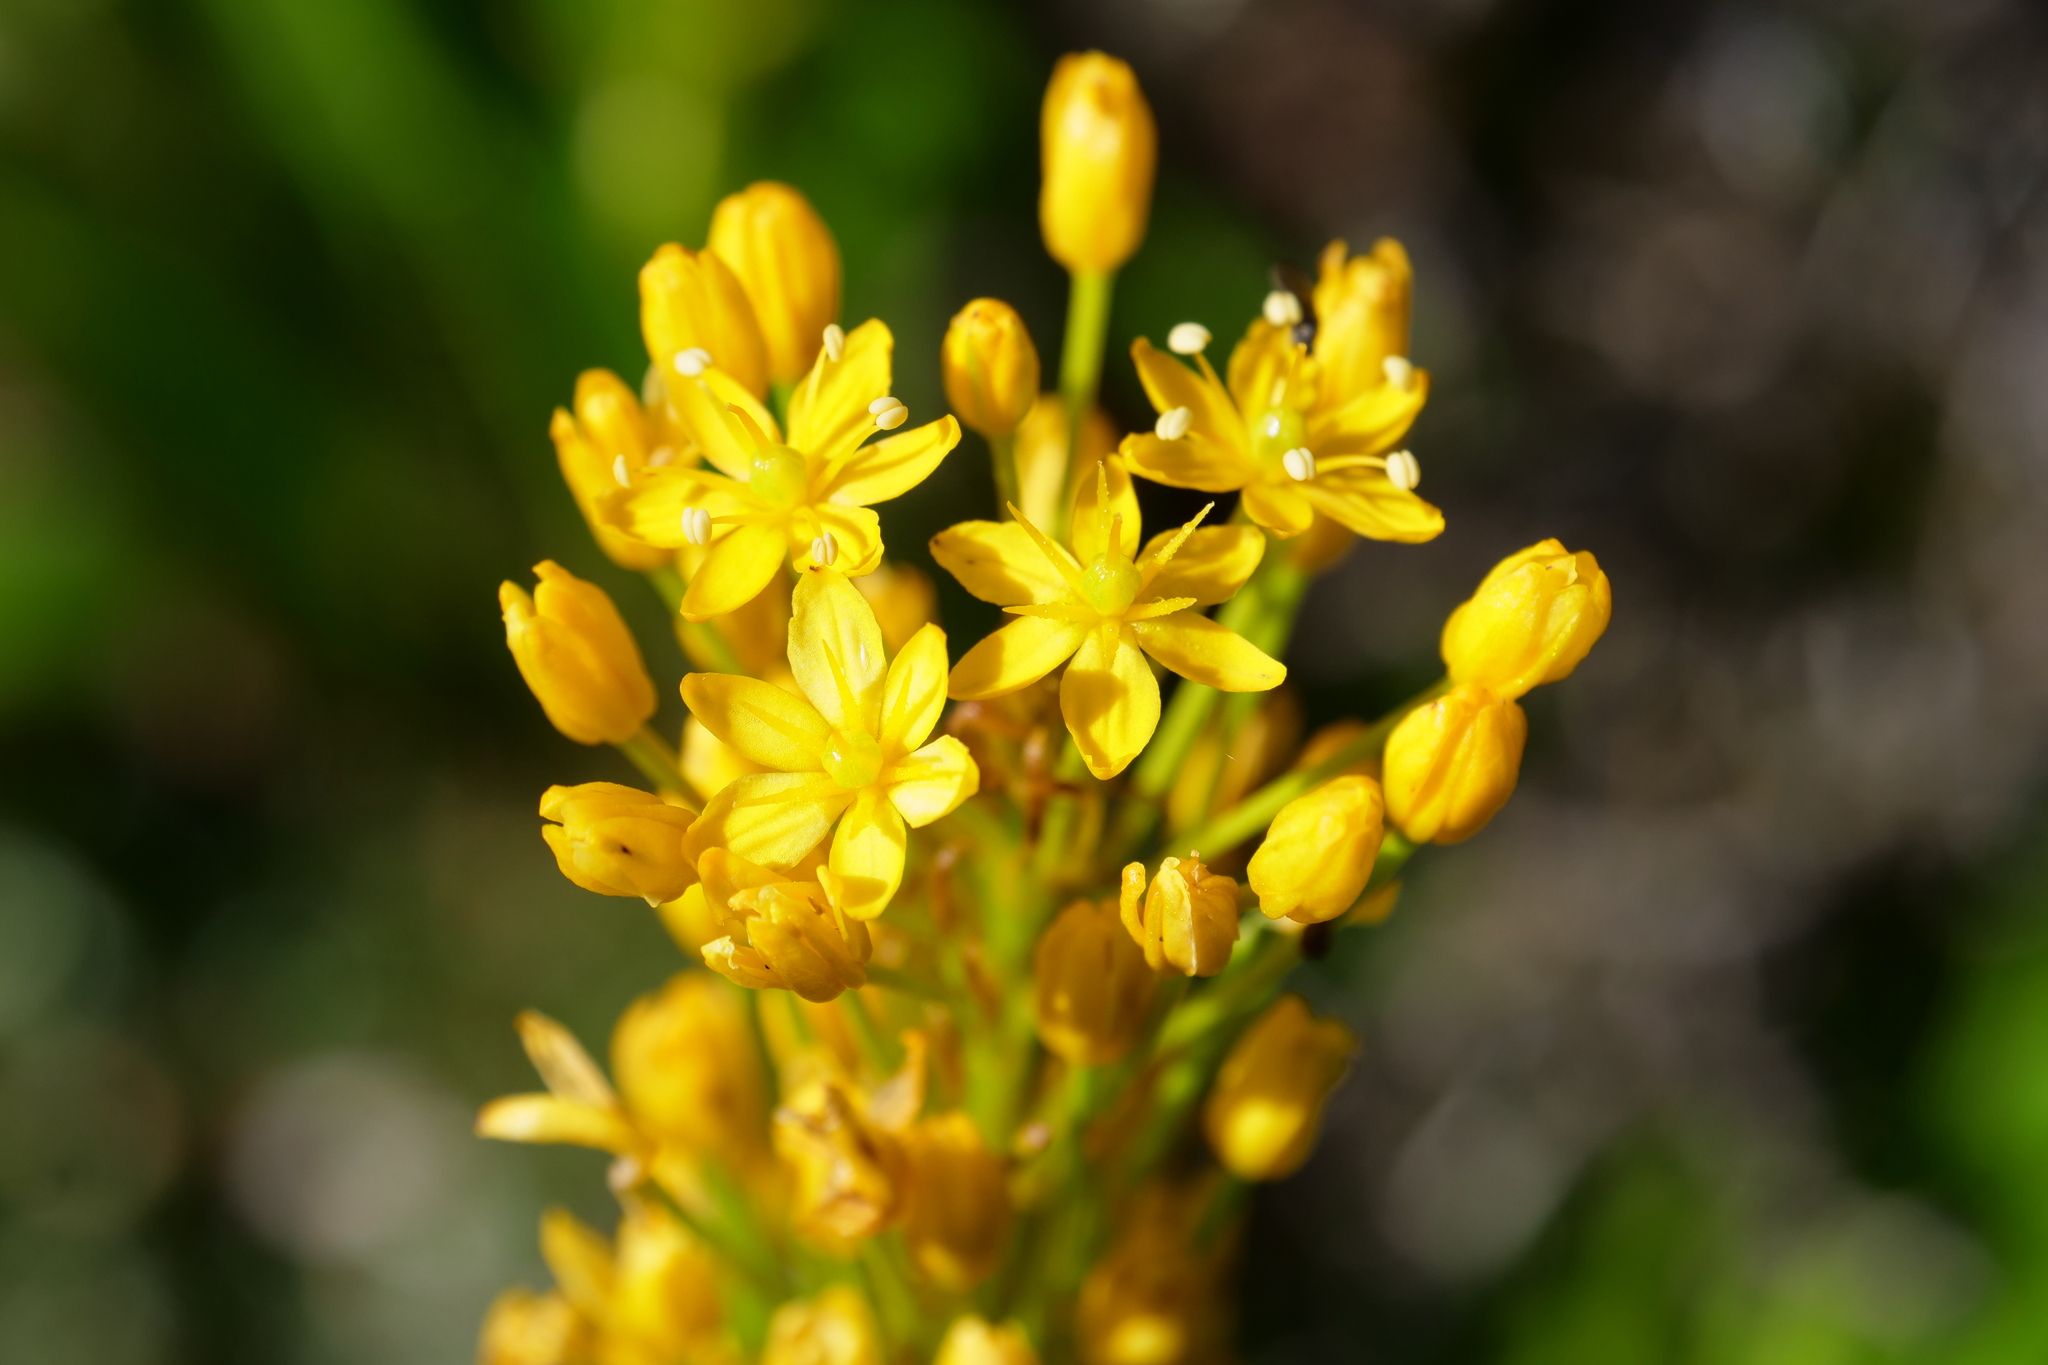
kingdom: Plantae
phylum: Tracheophyta
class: Liliopsida
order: Asparagales
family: Asphodelaceae
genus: Bulbinella
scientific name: Bulbinella angustifolia
